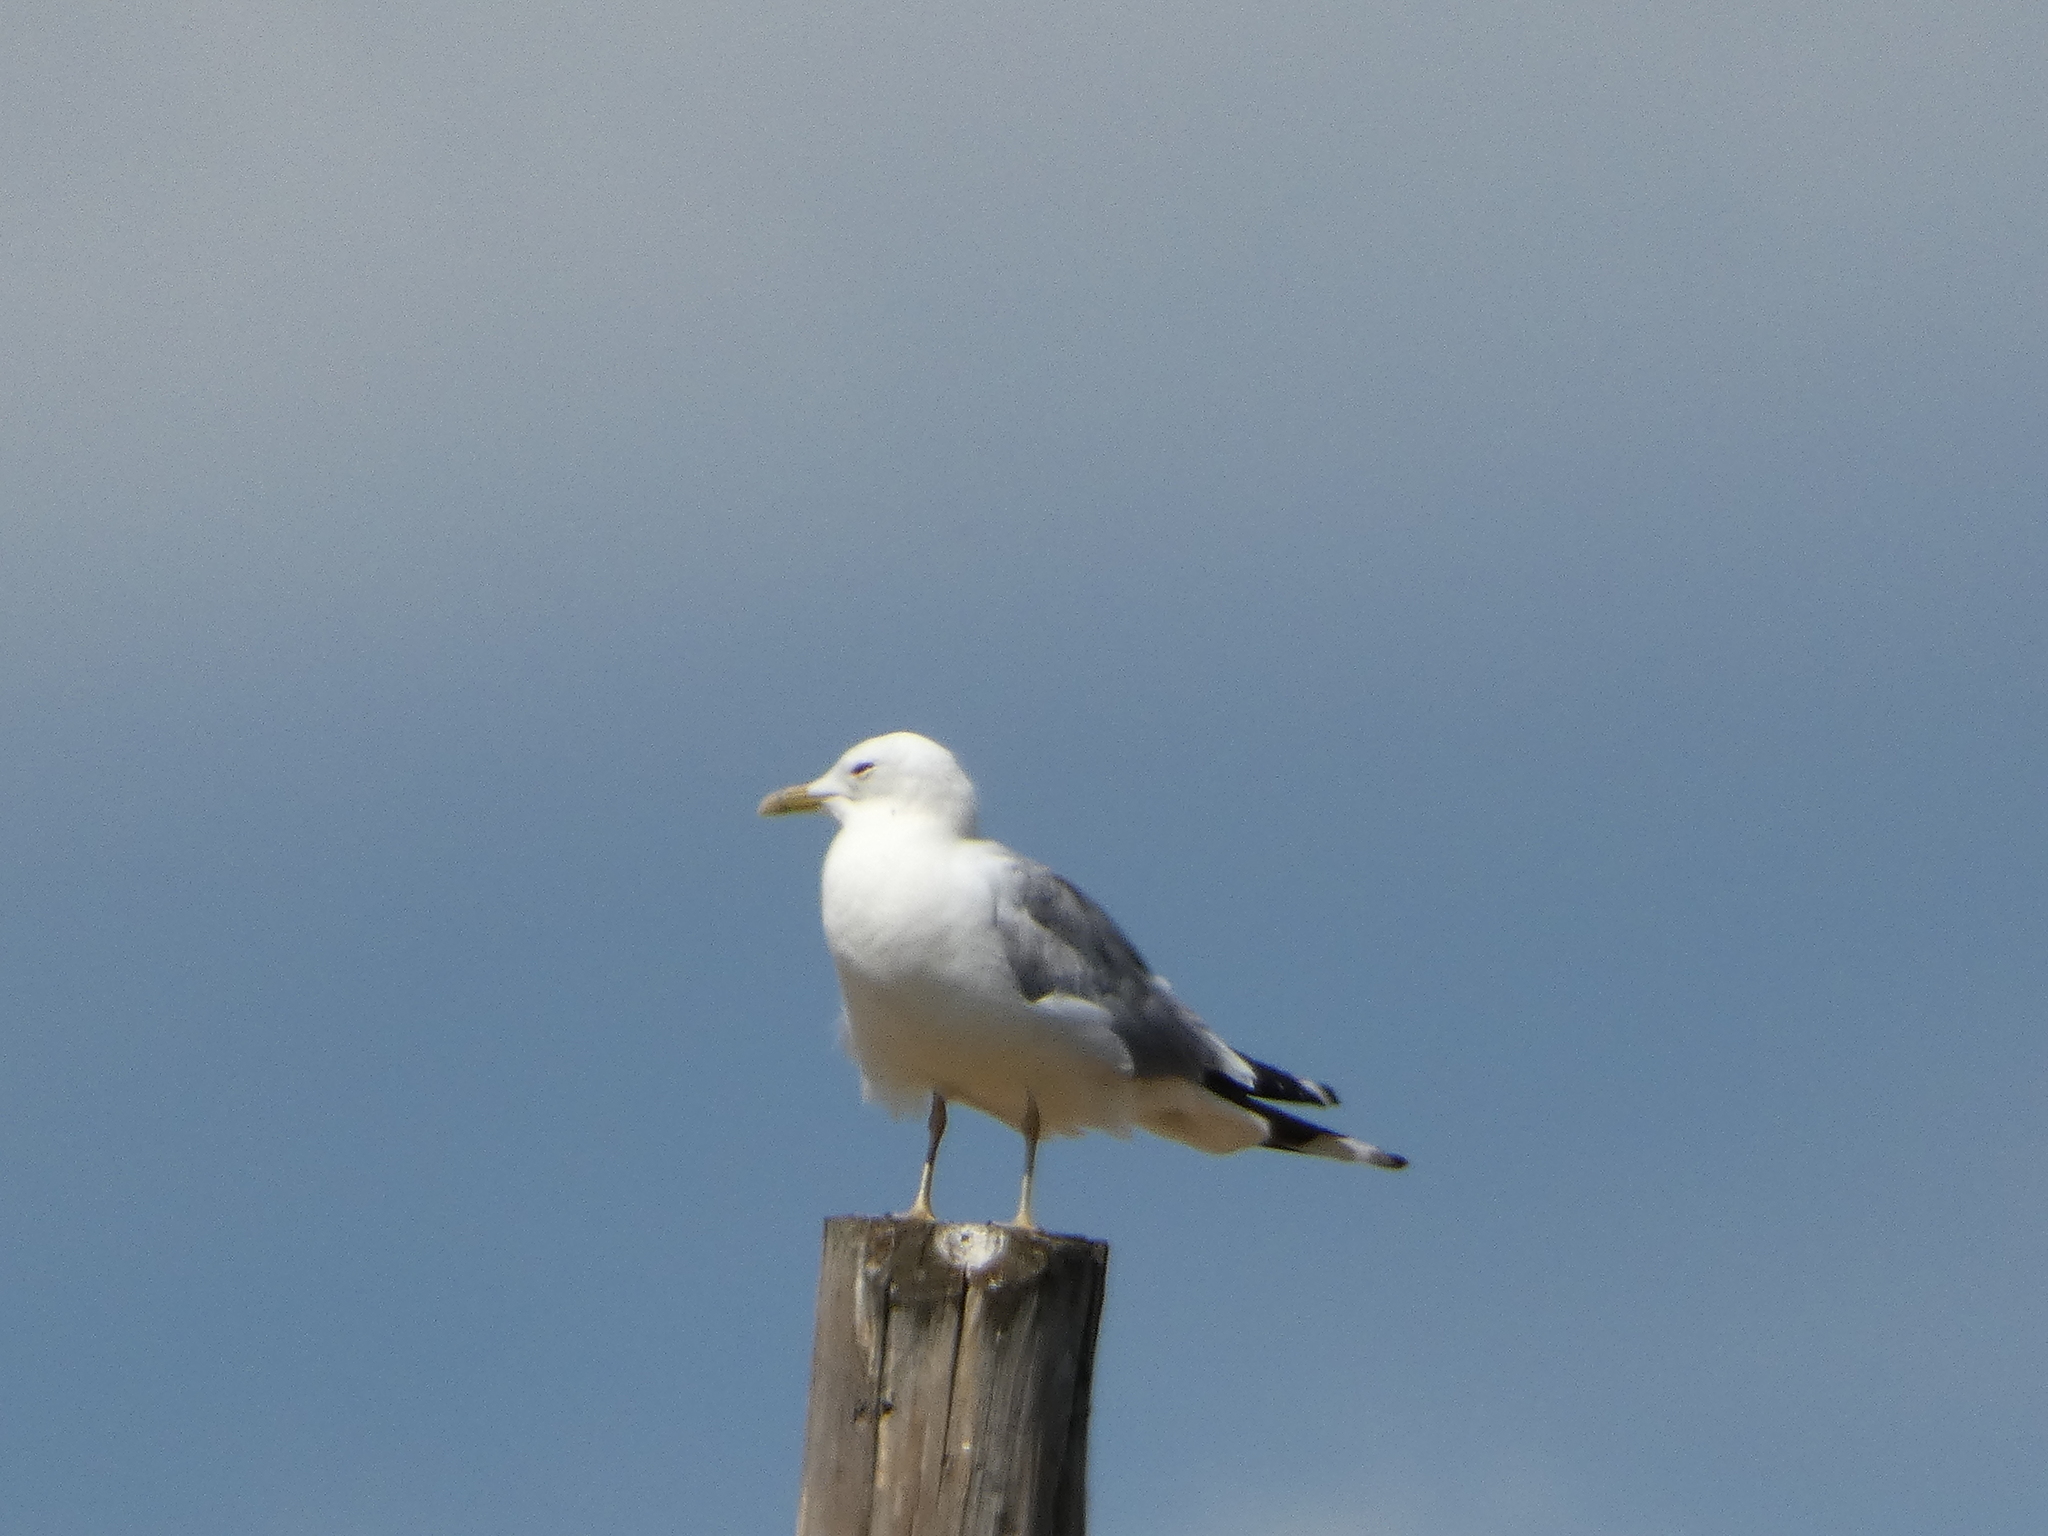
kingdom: Animalia
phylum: Chordata
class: Aves
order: Charadriiformes
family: Laridae
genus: Larus
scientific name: Larus canus
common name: Mew gull
